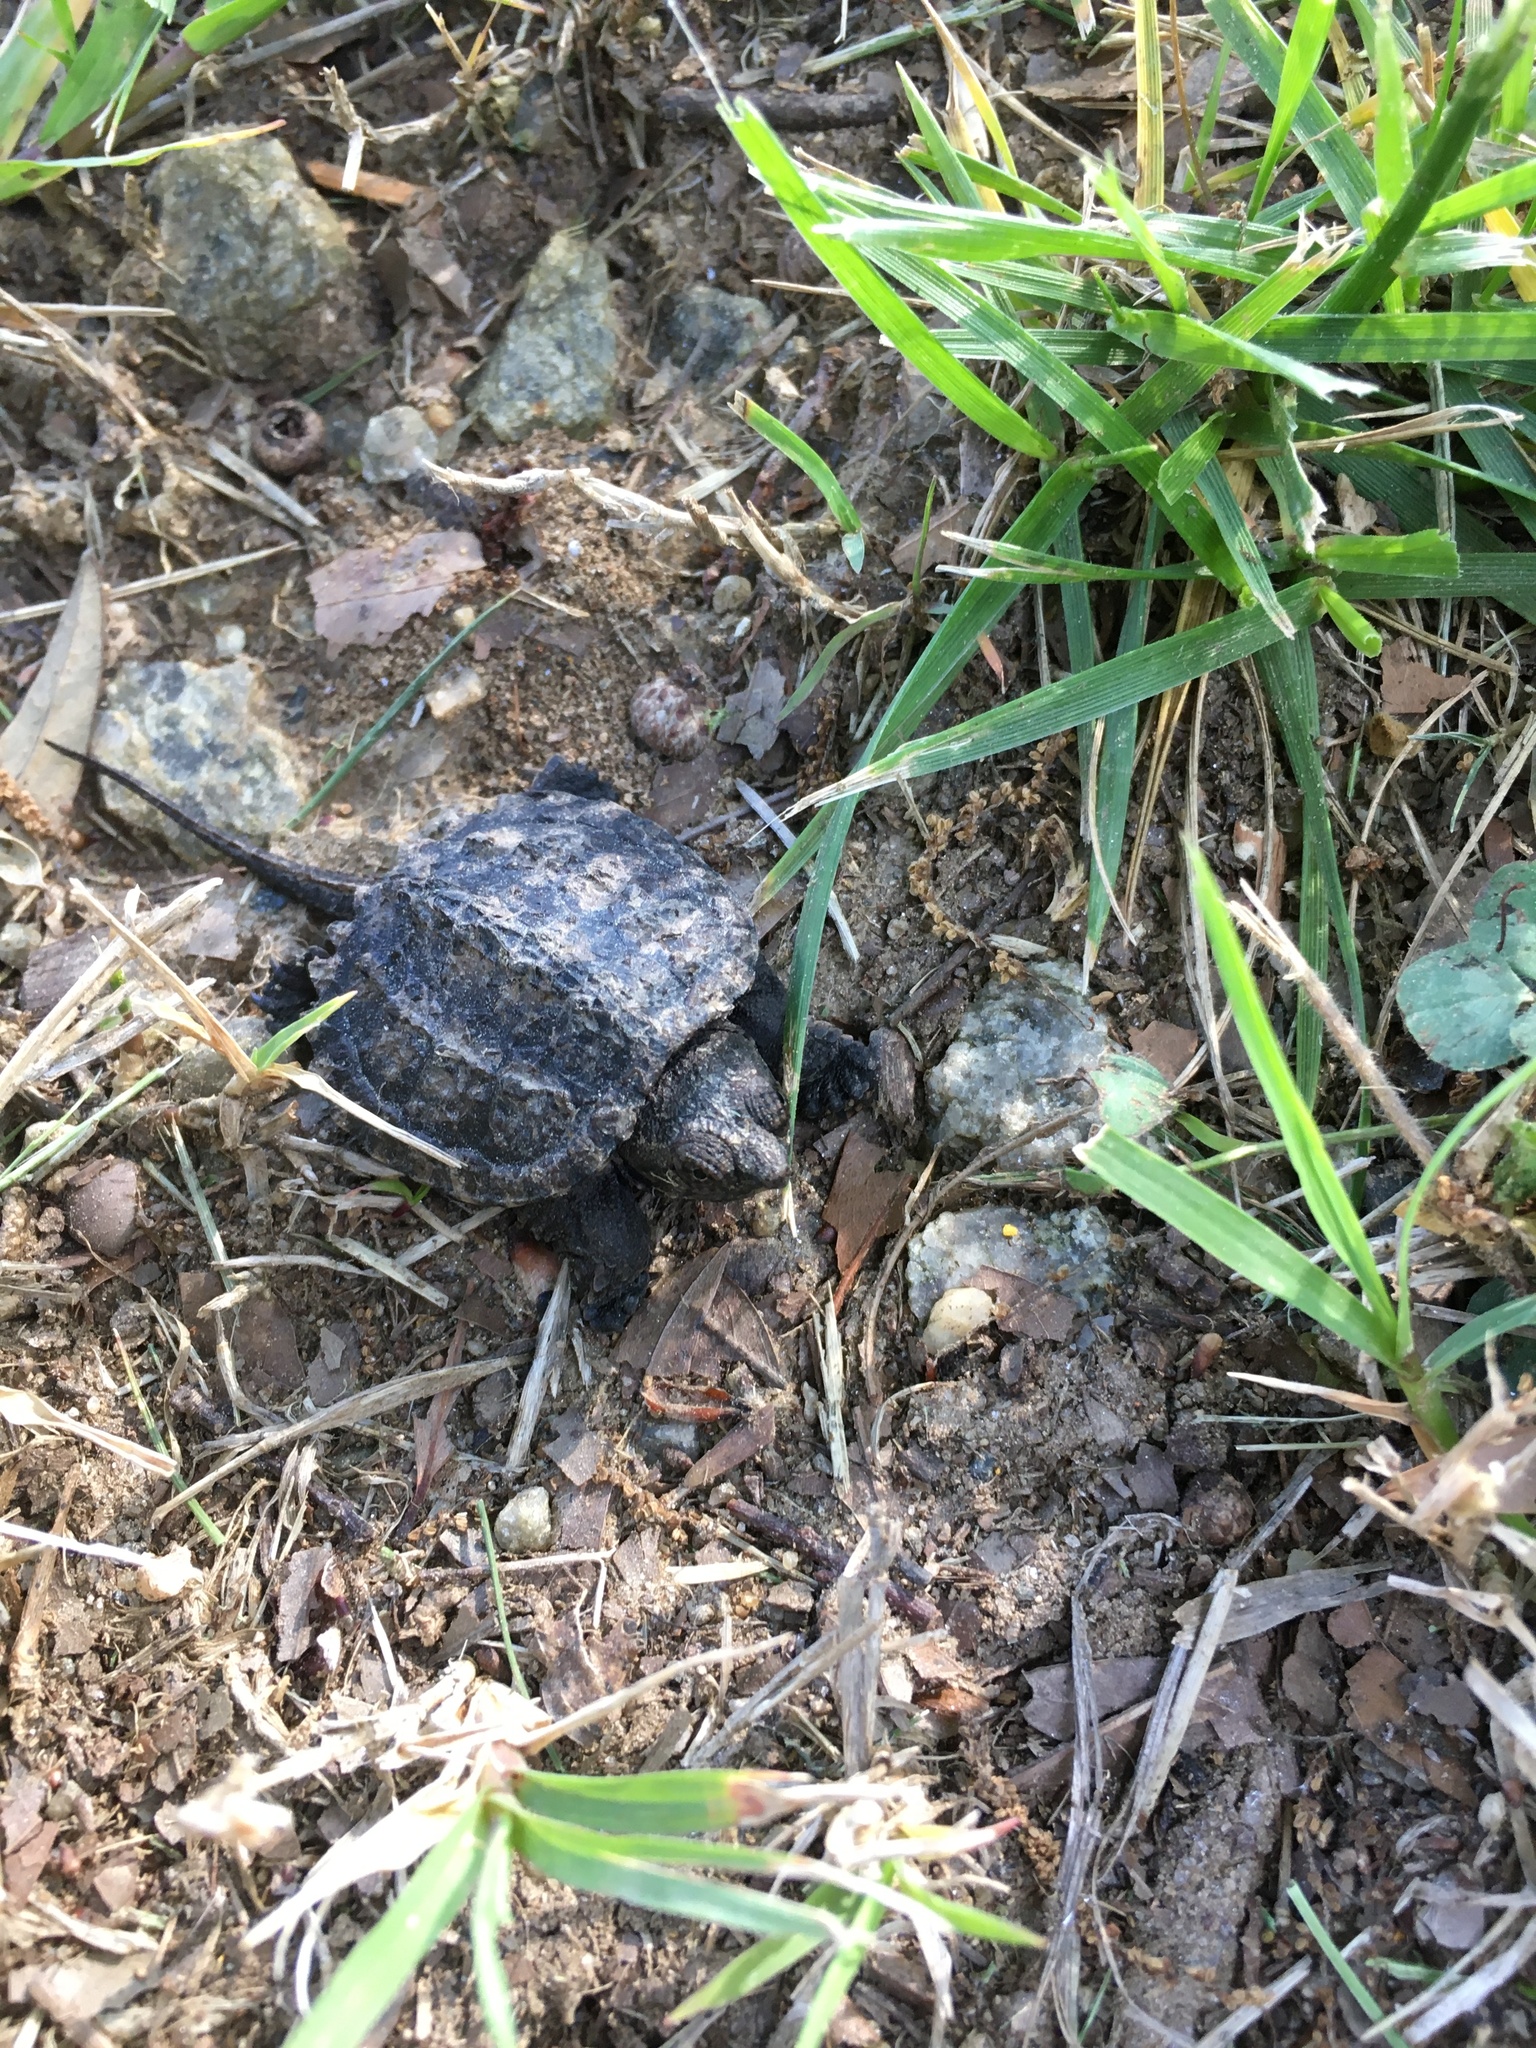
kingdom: Animalia
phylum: Chordata
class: Testudines
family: Chelydridae
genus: Chelydra
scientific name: Chelydra serpentina
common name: Common snapping turtle
